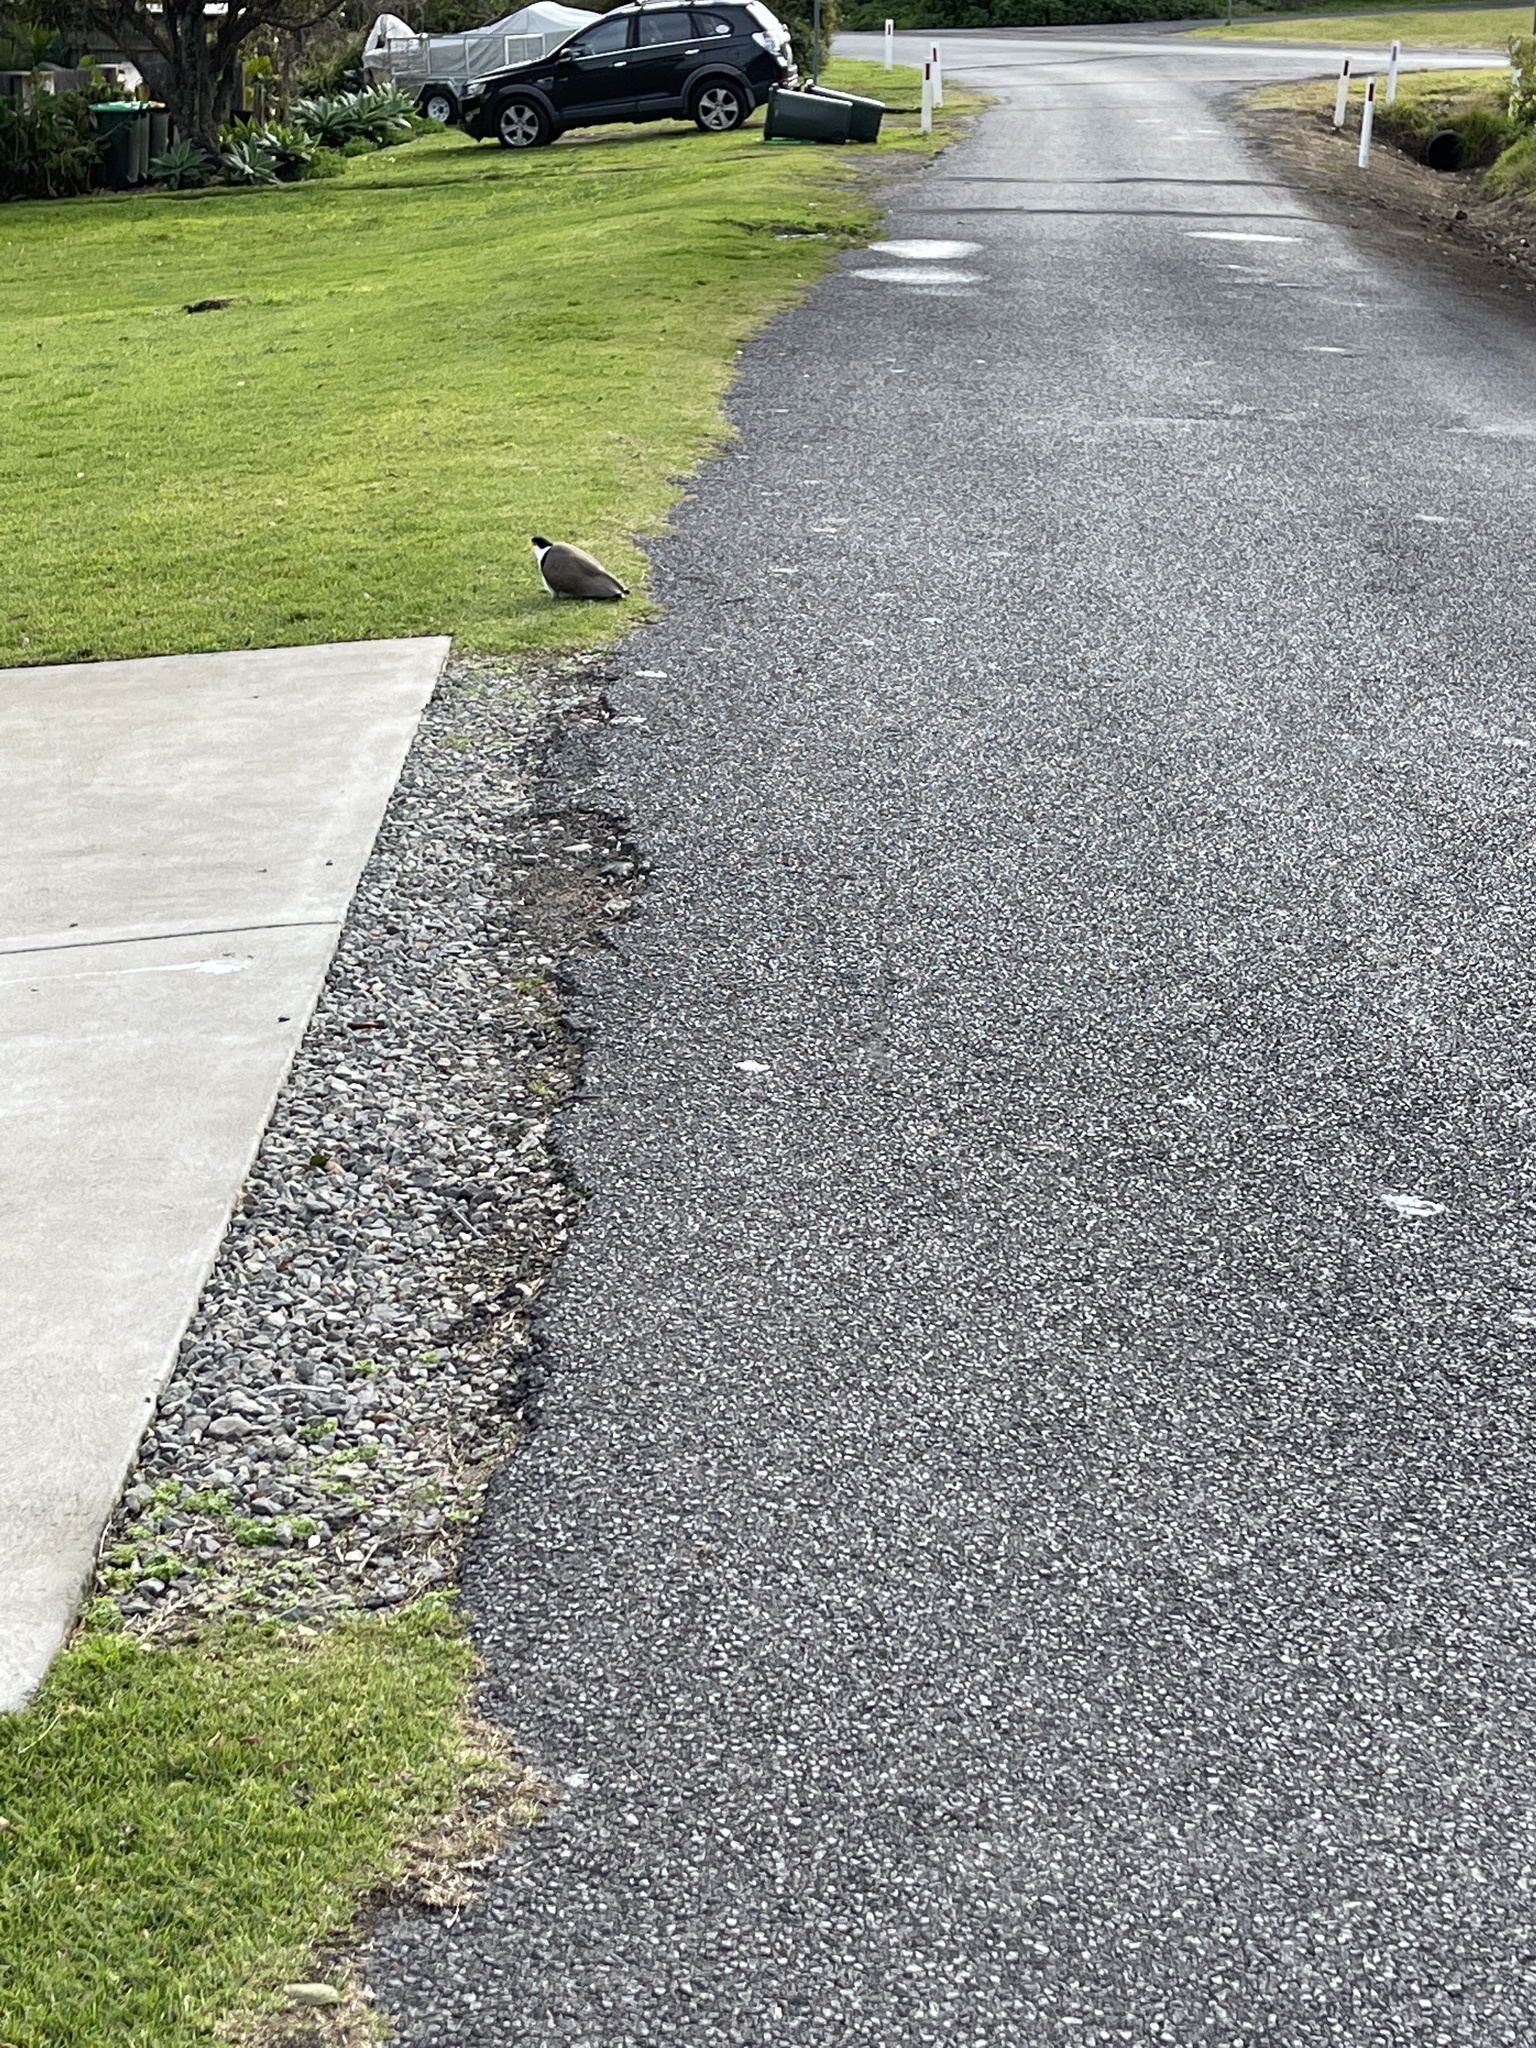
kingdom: Animalia
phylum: Chordata
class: Aves
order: Charadriiformes
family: Charadriidae
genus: Vanellus
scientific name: Vanellus miles
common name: Masked lapwing
